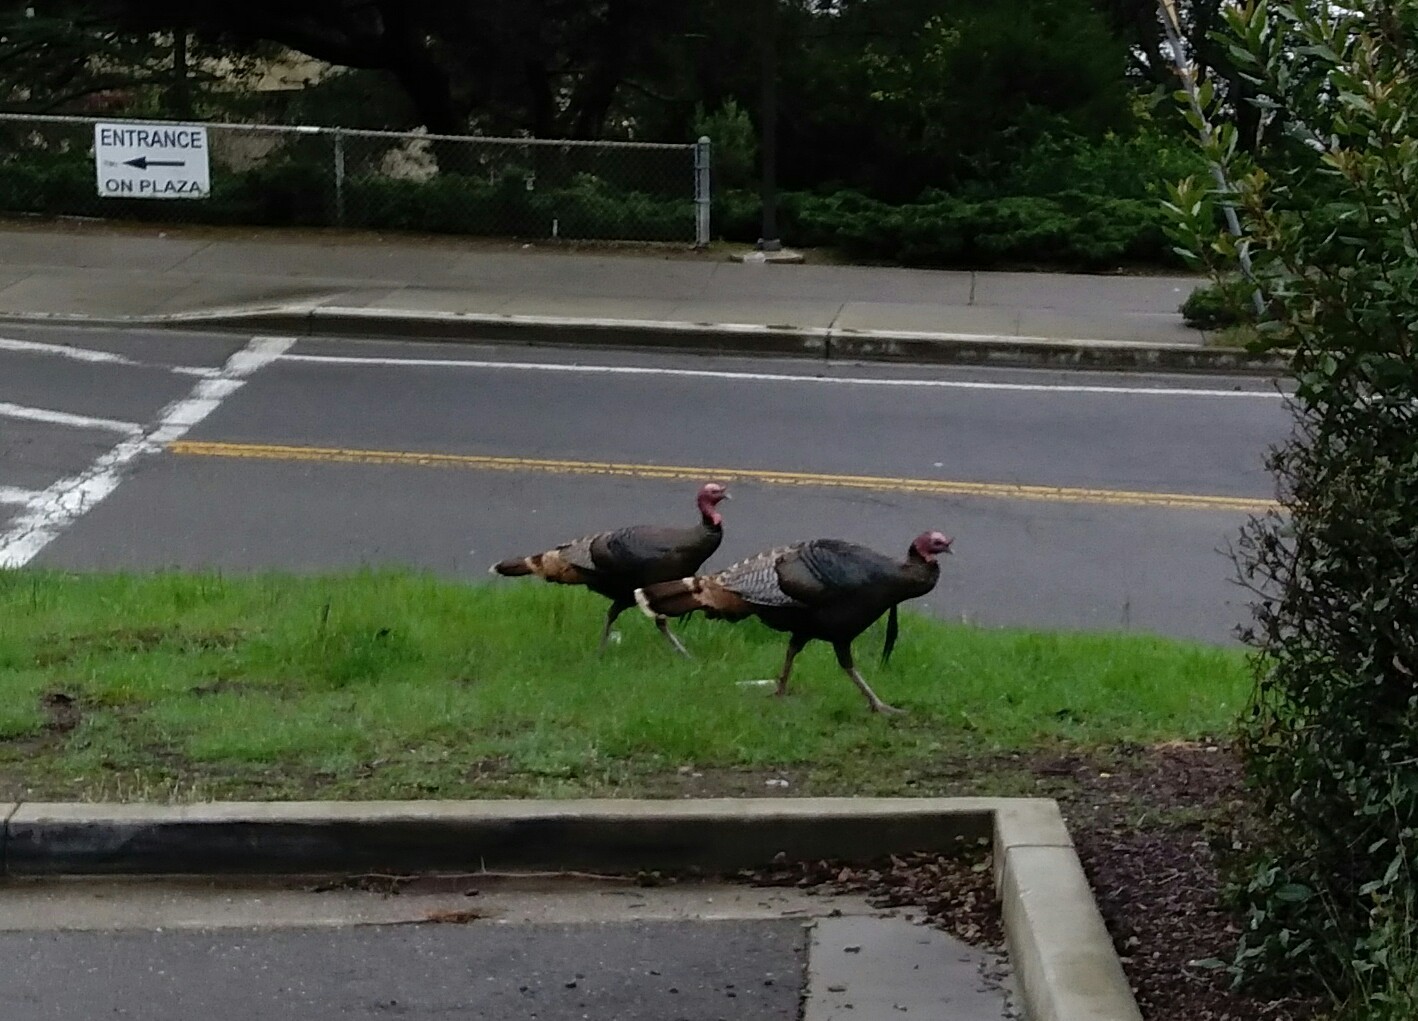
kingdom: Animalia
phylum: Chordata
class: Aves
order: Galliformes
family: Phasianidae
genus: Meleagris
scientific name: Meleagris gallopavo
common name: Wild turkey
